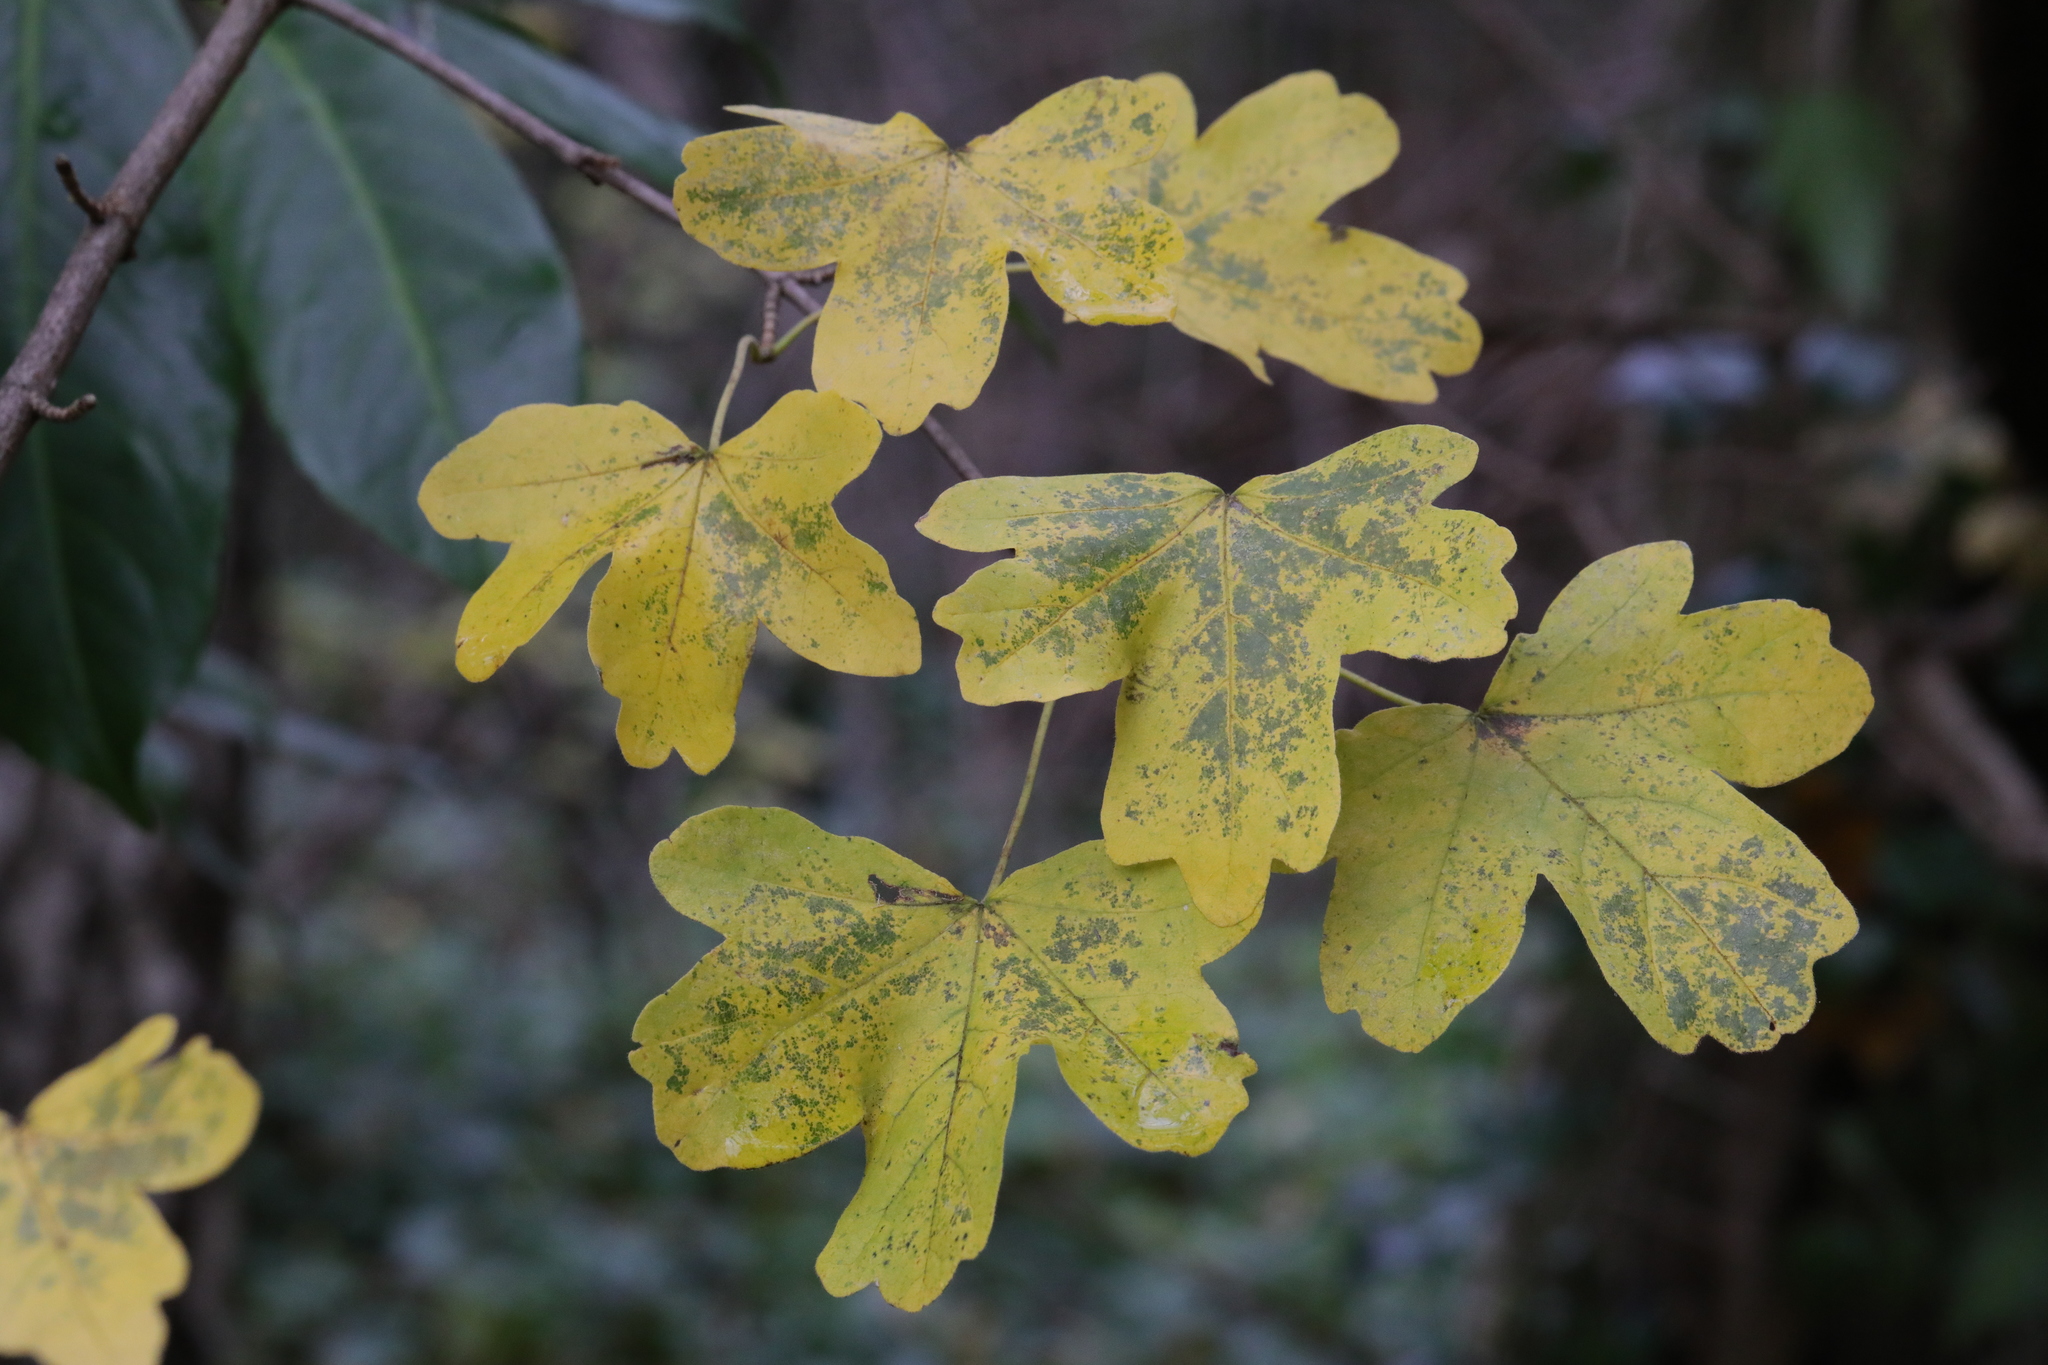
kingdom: Plantae
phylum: Tracheophyta
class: Magnoliopsida
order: Sapindales
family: Sapindaceae
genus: Acer
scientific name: Acer campestre
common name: Field maple
